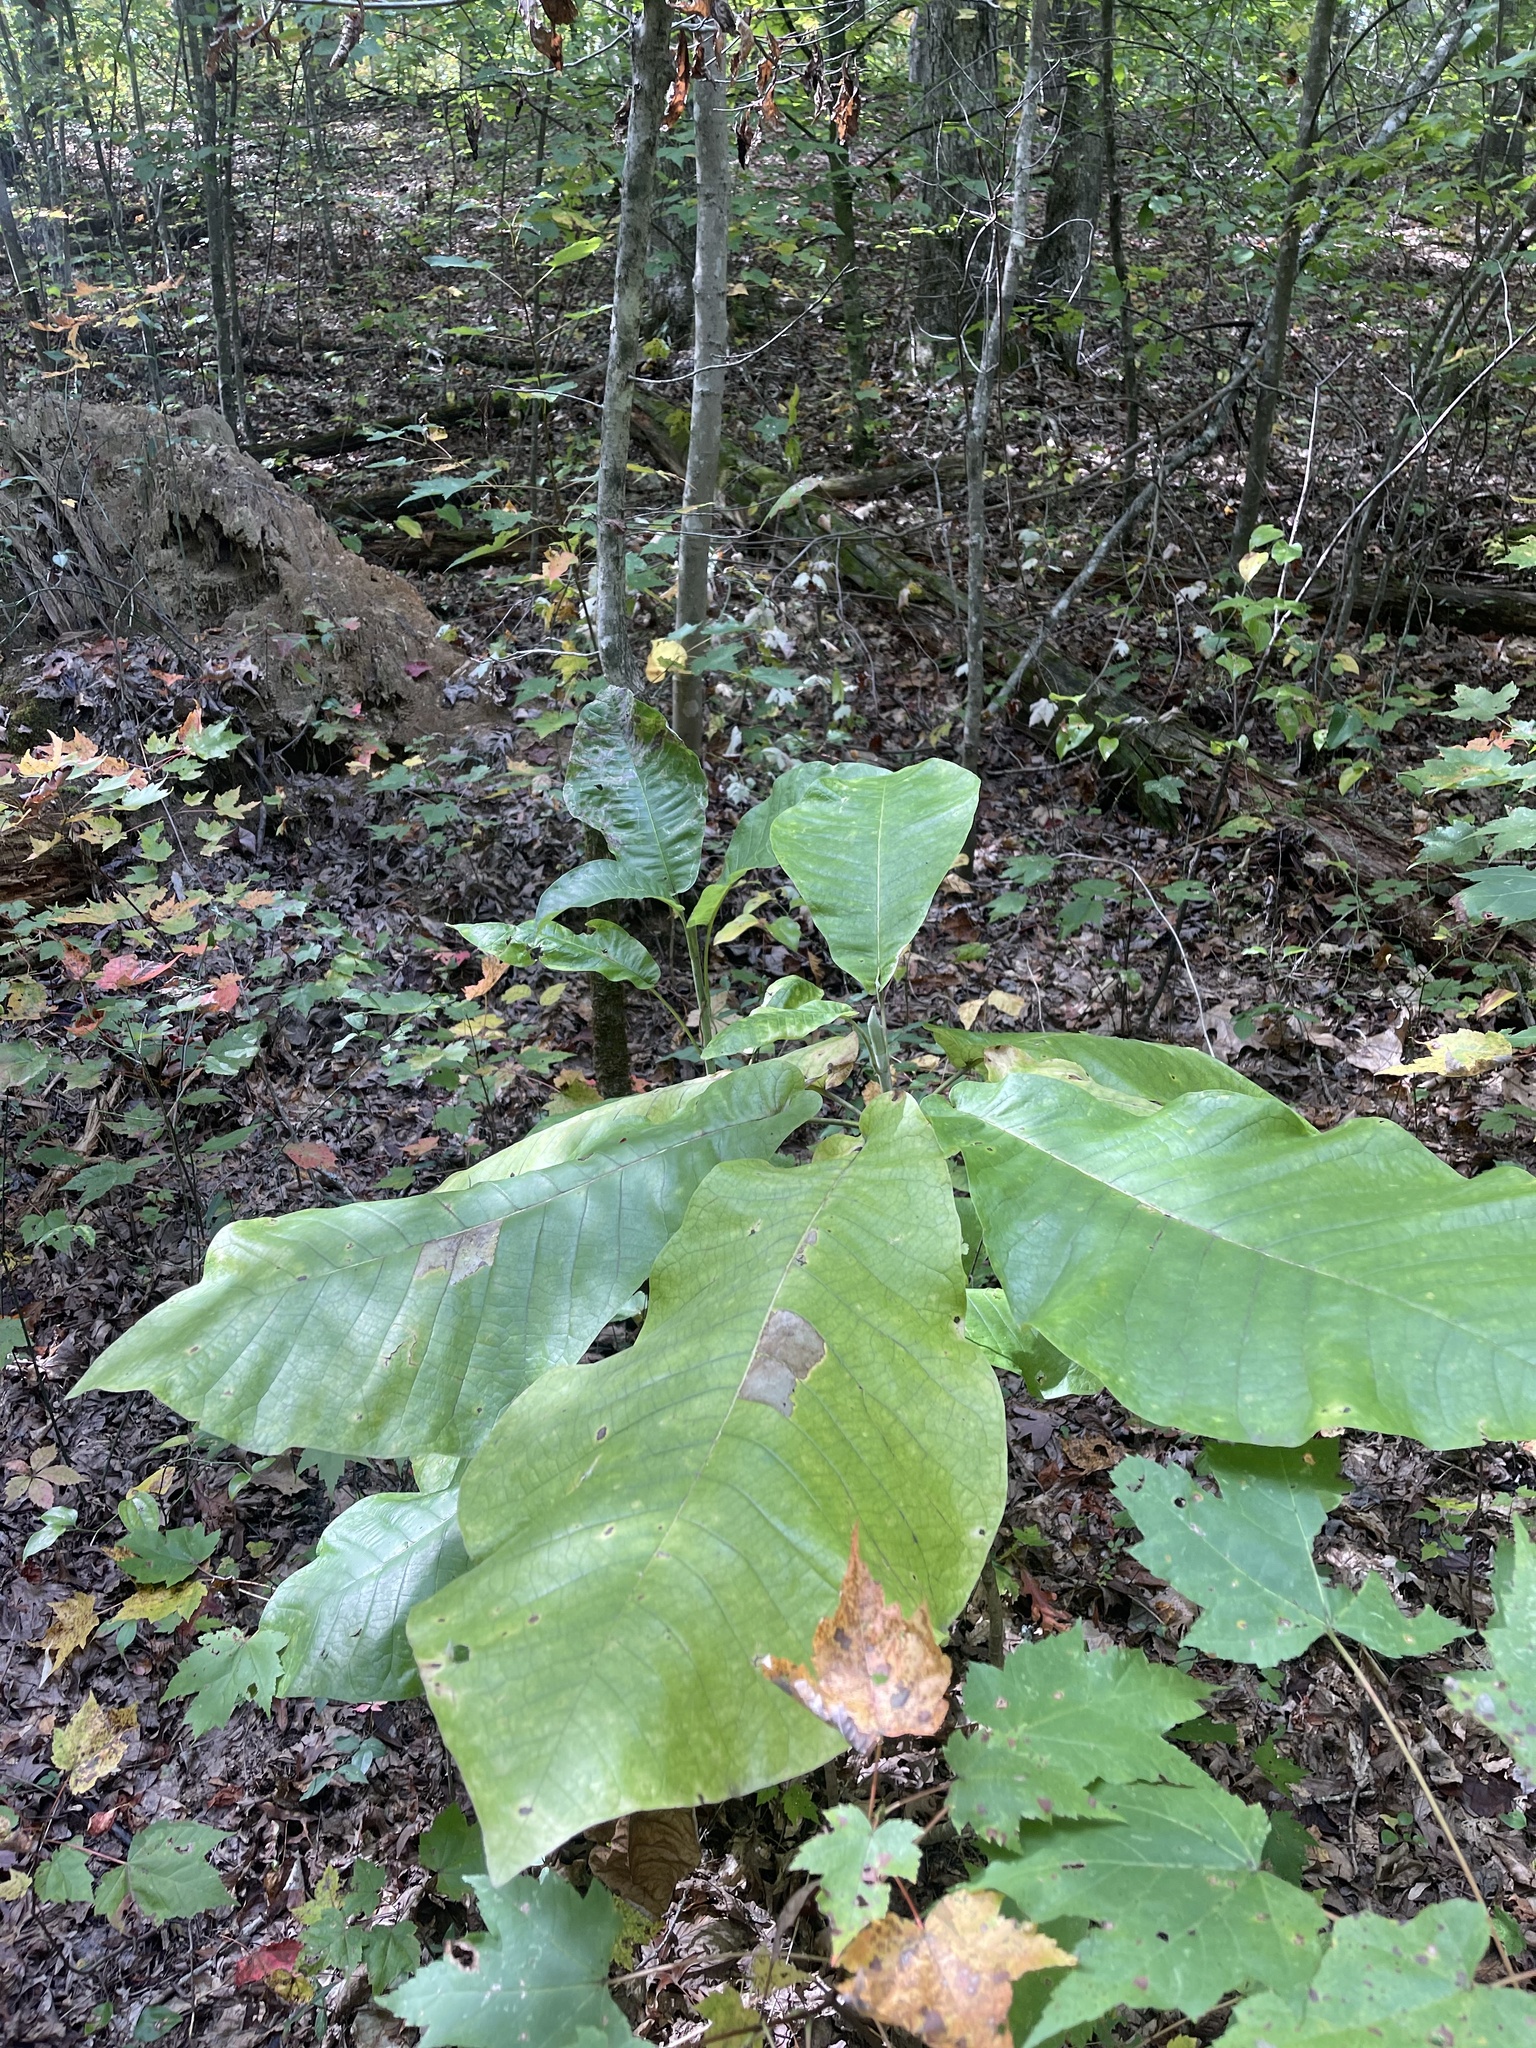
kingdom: Plantae
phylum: Tracheophyta
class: Magnoliopsida
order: Magnoliales
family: Magnoliaceae
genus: Magnolia
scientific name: Magnolia macrophylla
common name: Big-leaf magnolia
